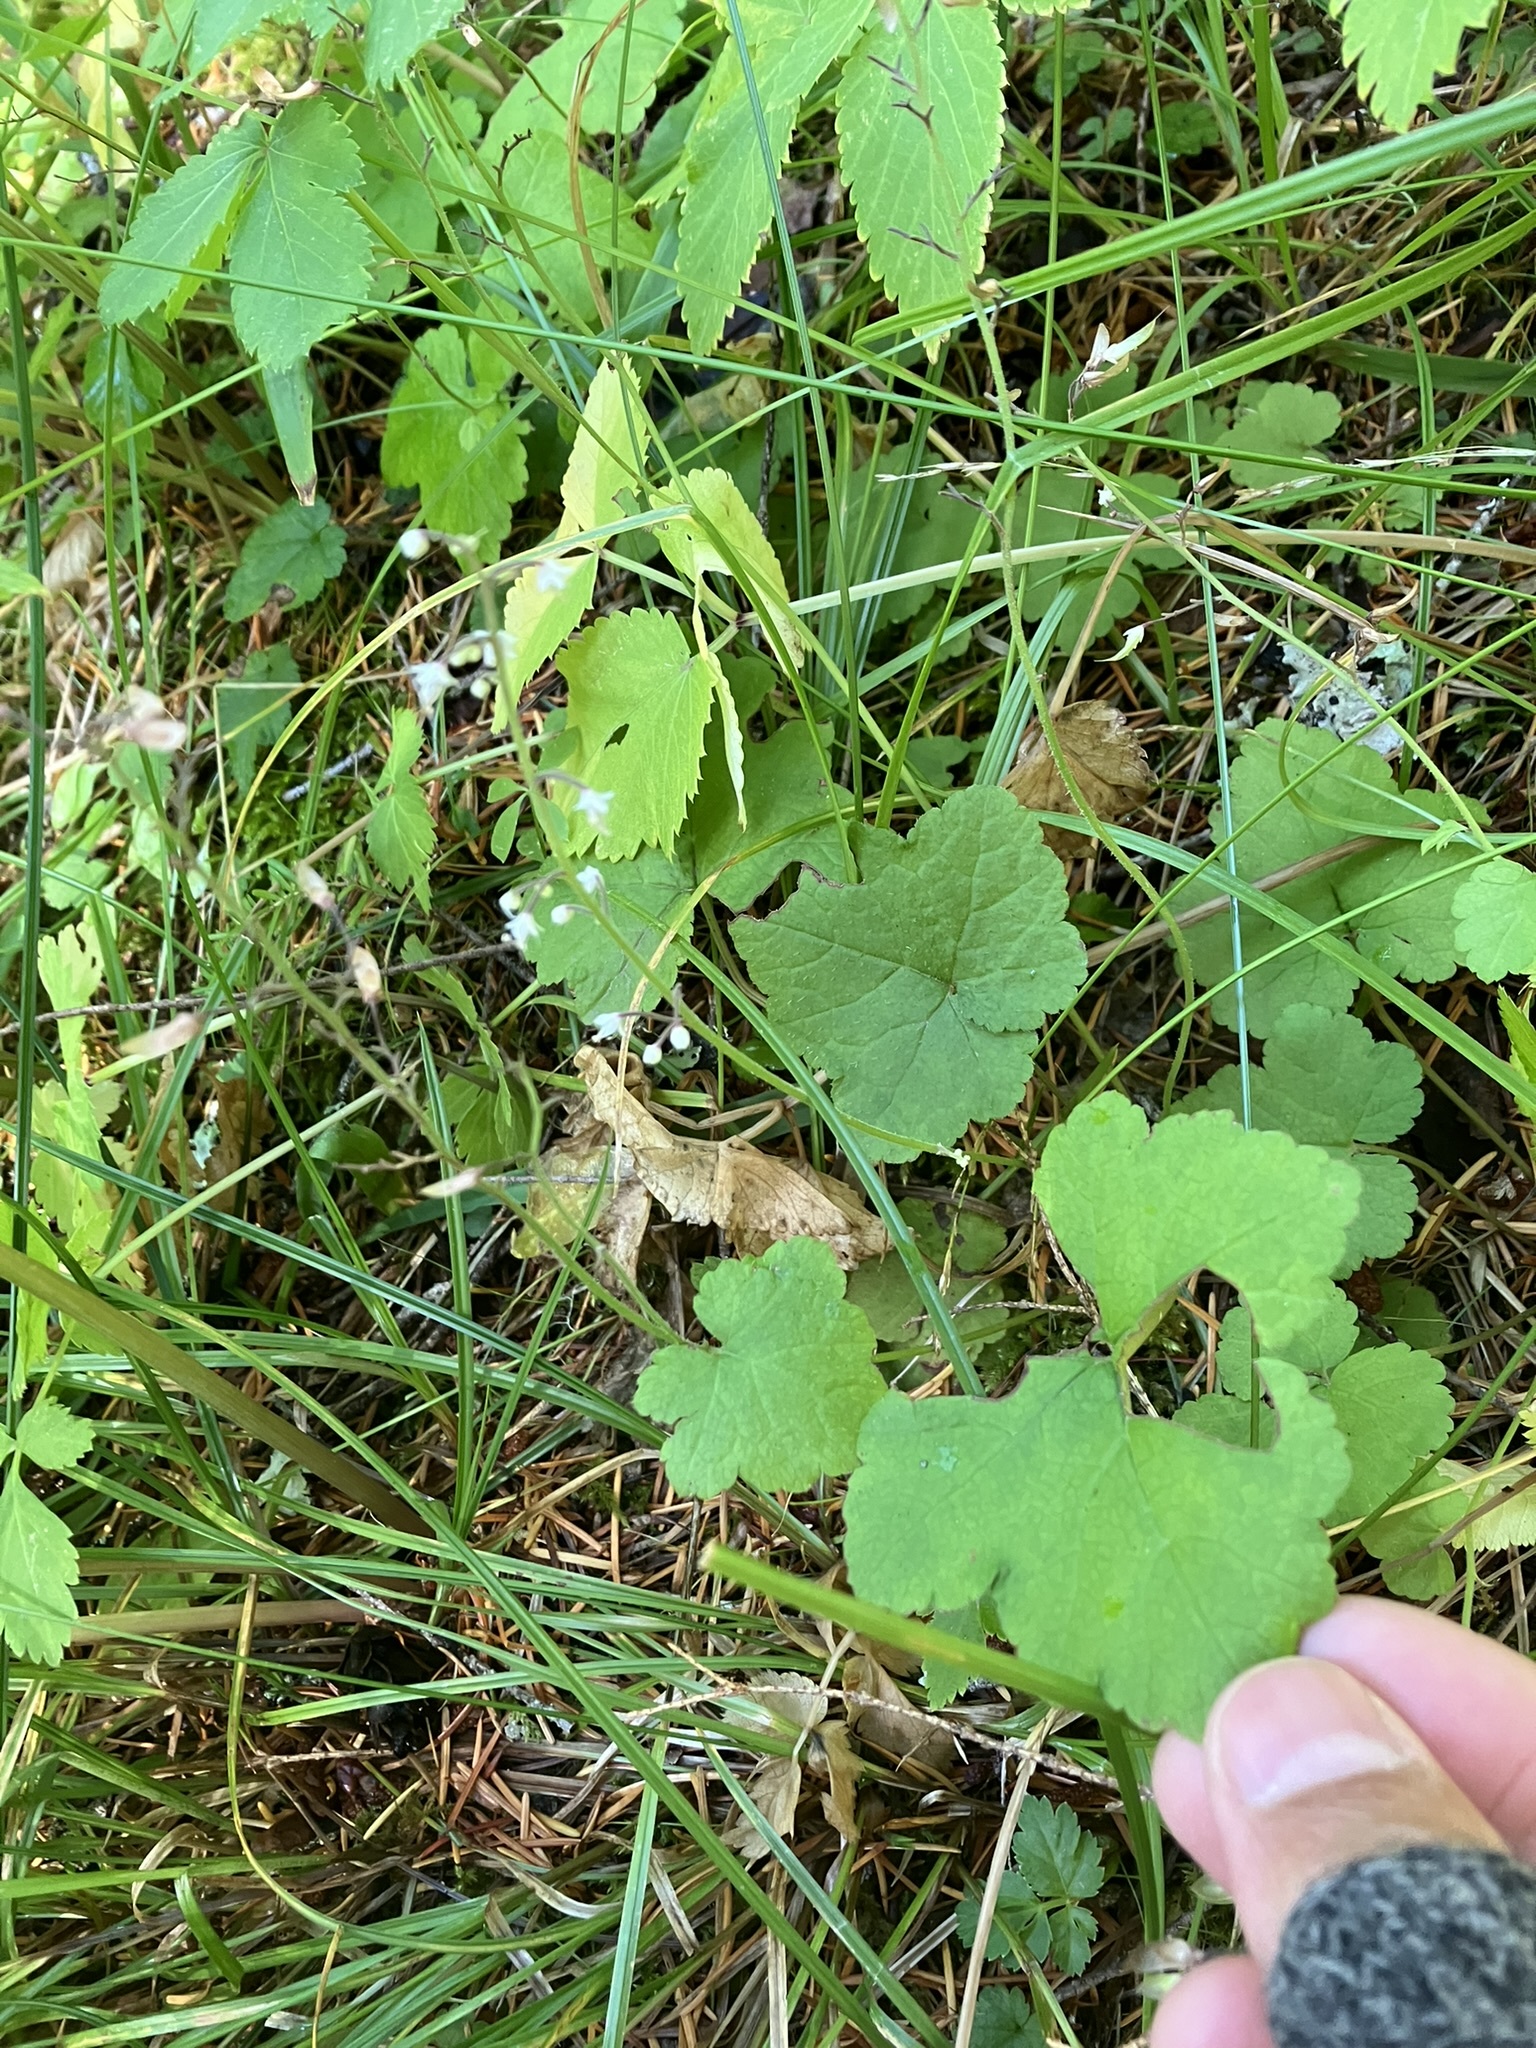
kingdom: Plantae
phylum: Tracheophyta
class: Magnoliopsida
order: Saxifragales
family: Saxifragaceae
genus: Tiarella
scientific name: Tiarella trifoliata
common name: Sugar-scoop
